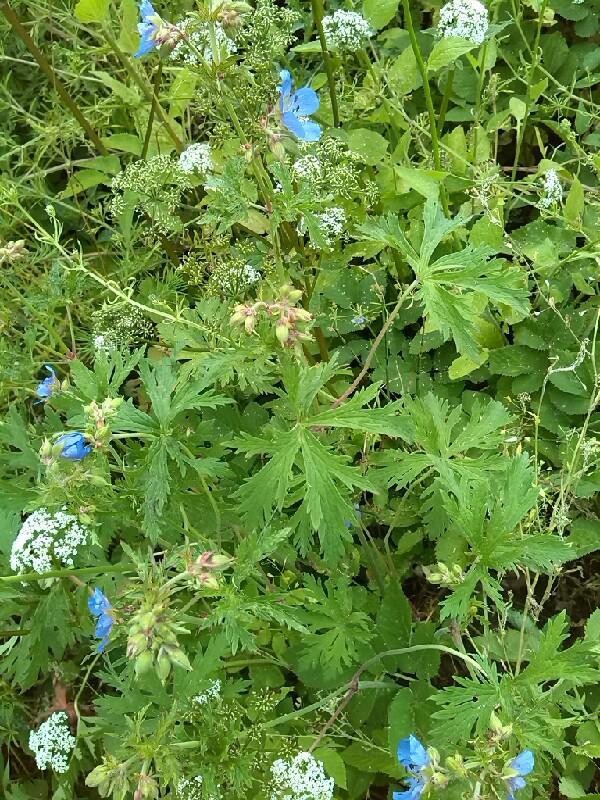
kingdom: Plantae
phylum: Tracheophyta
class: Magnoliopsida
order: Geraniales
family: Geraniaceae
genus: Geranium
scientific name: Geranium pratense
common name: Meadow crane's-bill
